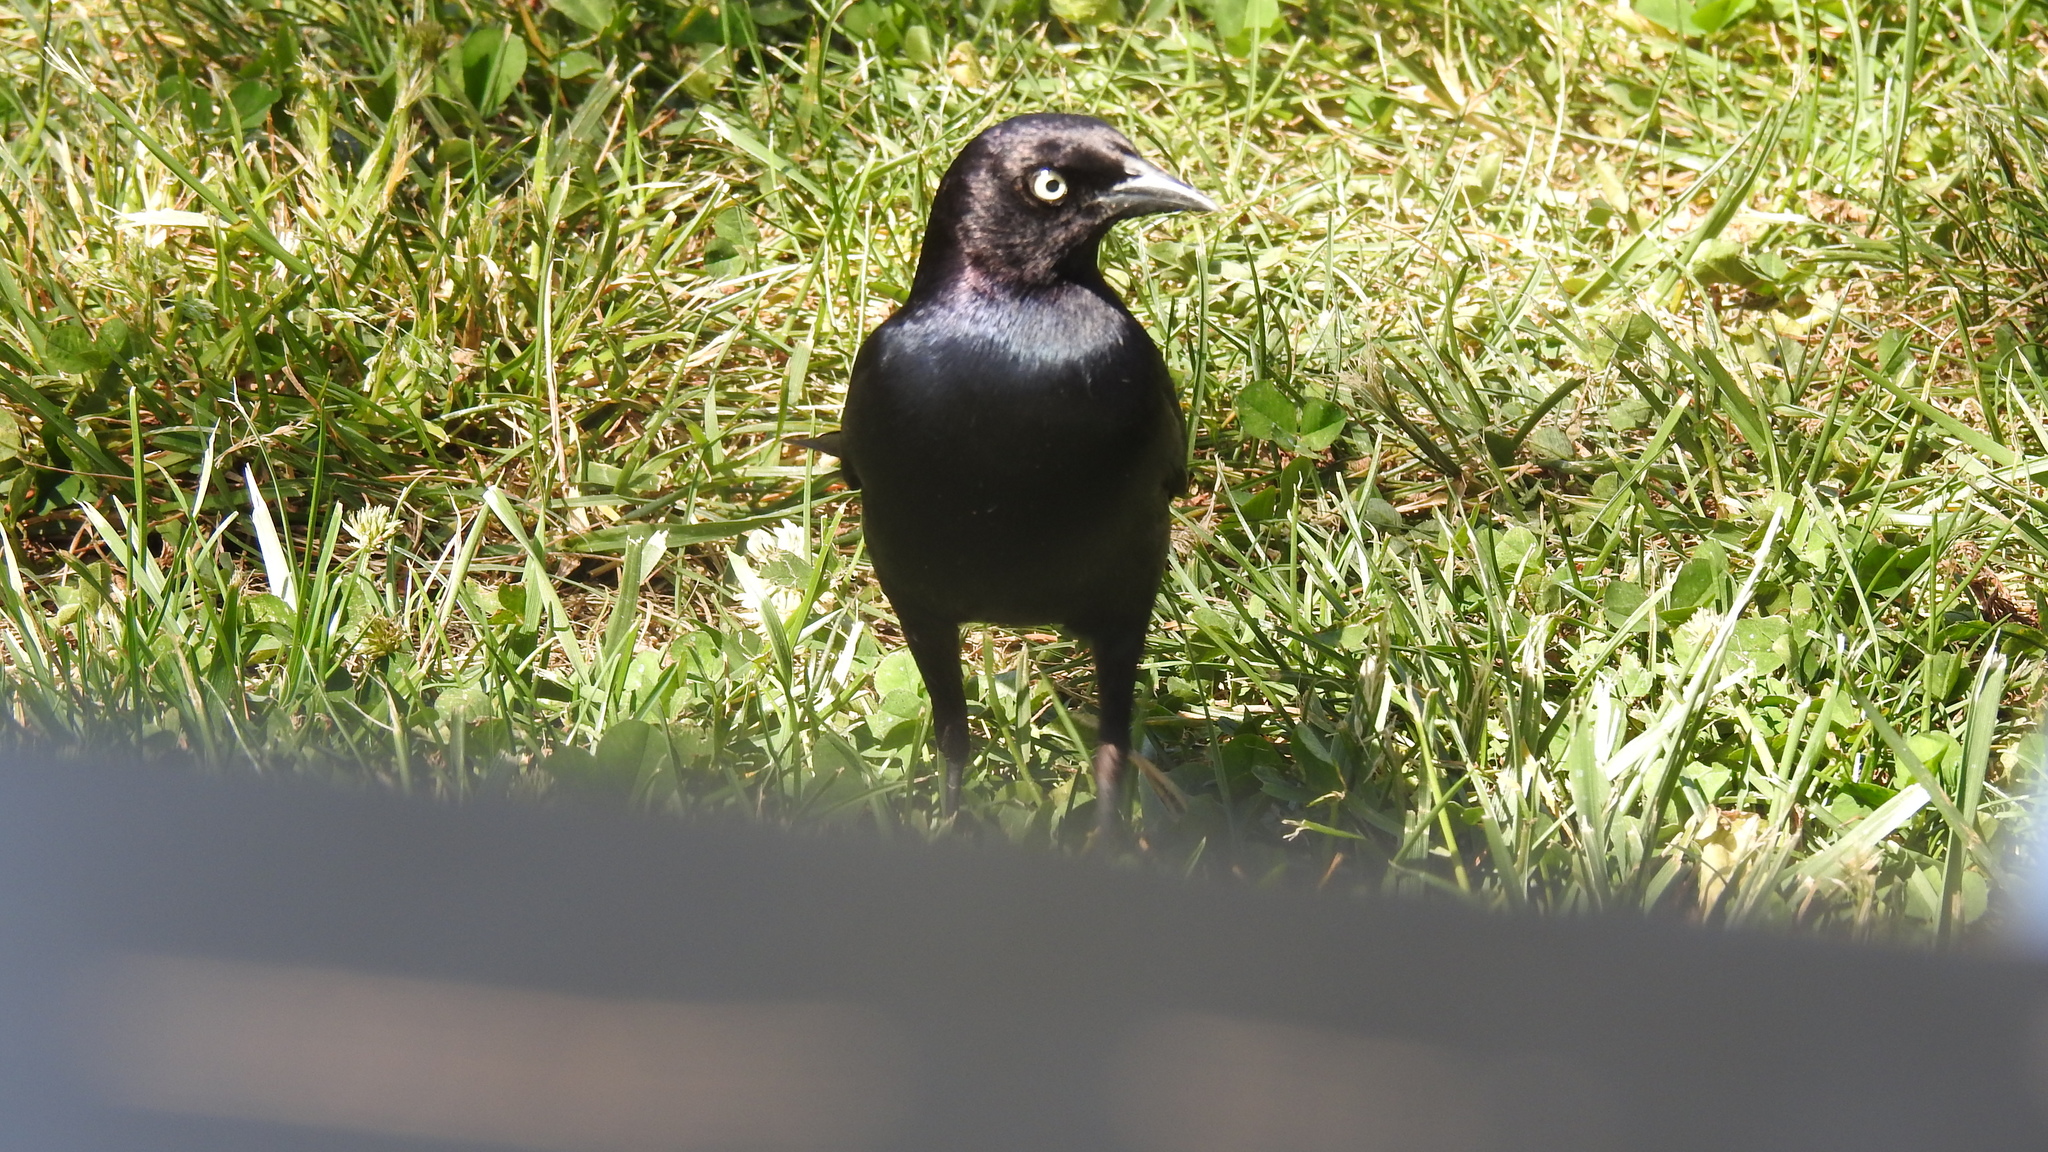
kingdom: Animalia
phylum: Chordata
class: Aves
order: Passeriformes
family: Icteridae
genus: Euphagus
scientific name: Euphagus cyanocephalus
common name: Brewer's blackbird
